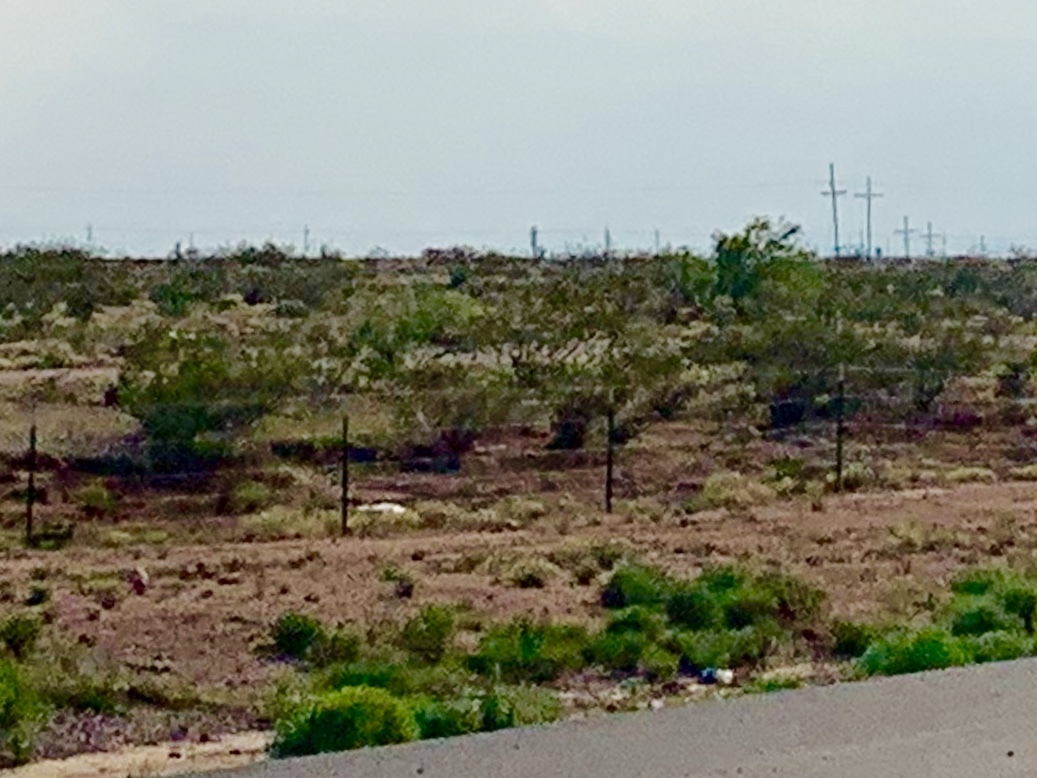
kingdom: Plantae
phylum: Tracheophyta
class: Magnoliopsida
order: Zygophyllales
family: Zygophyllaceae
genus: Larrea
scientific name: Larrea tridentata
